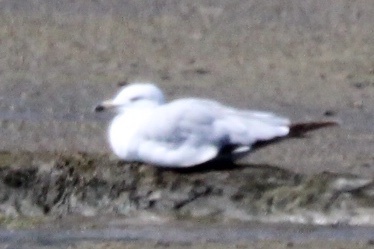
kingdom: Animalia
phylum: Chordata
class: Aves
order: Charadriiformes
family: Laridae
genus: Larus
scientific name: Larus delawarensis
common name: Ring-billed gull
